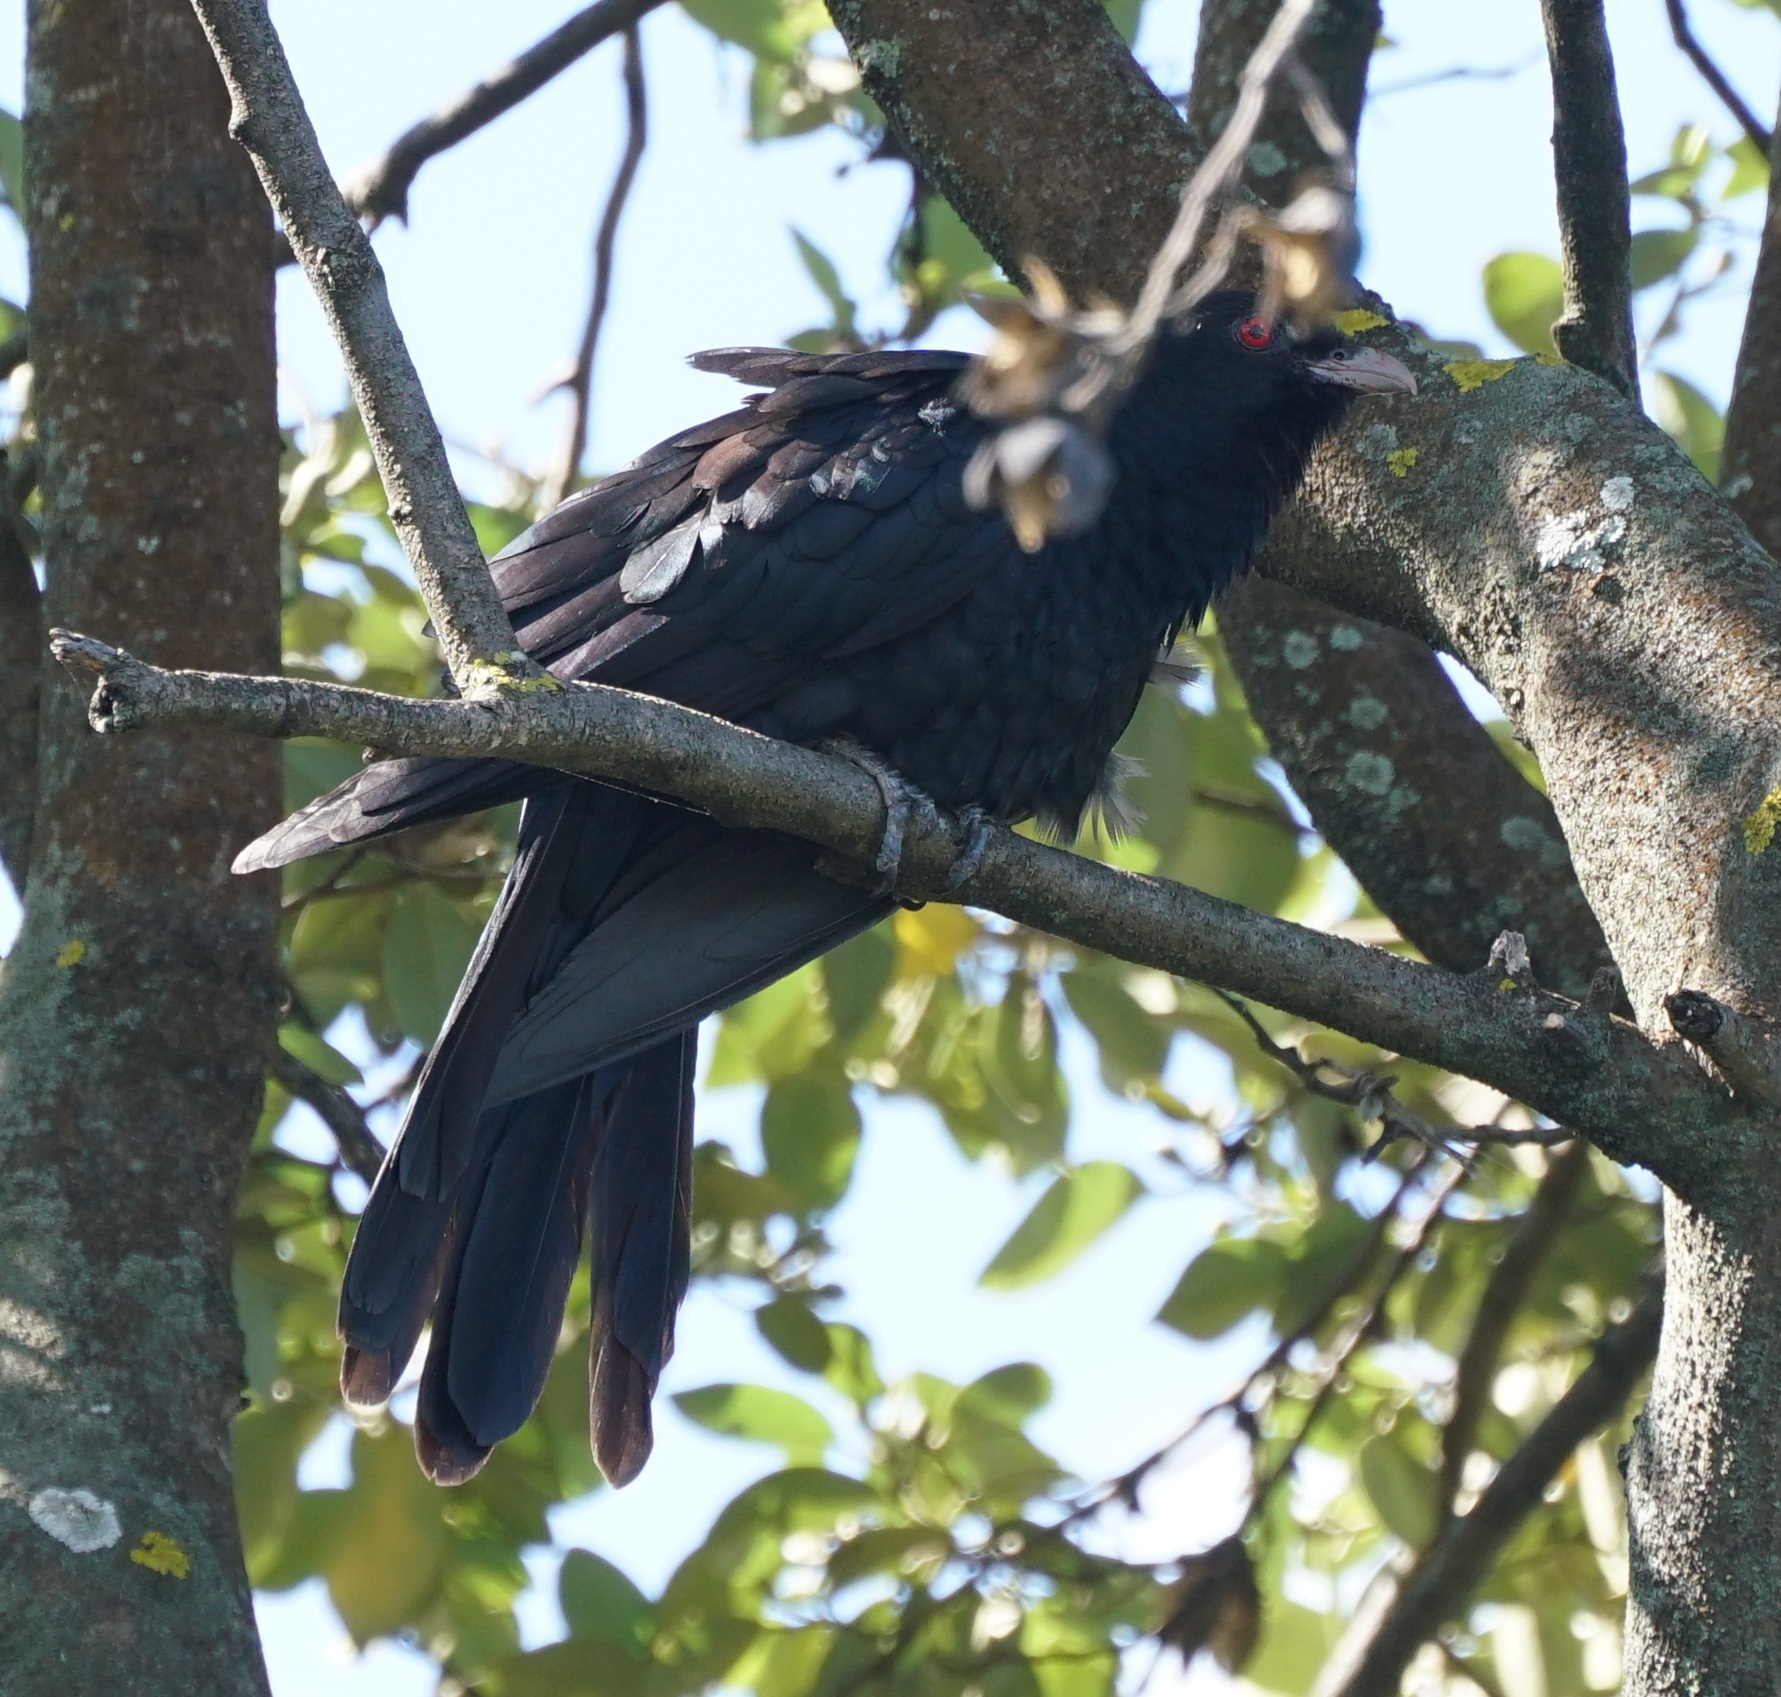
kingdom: Animalia
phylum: Chordata
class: Aves
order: Cuculiformes
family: Cuculidae
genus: Eudynamys
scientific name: Eudynamys orientalis
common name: Pacific koel
